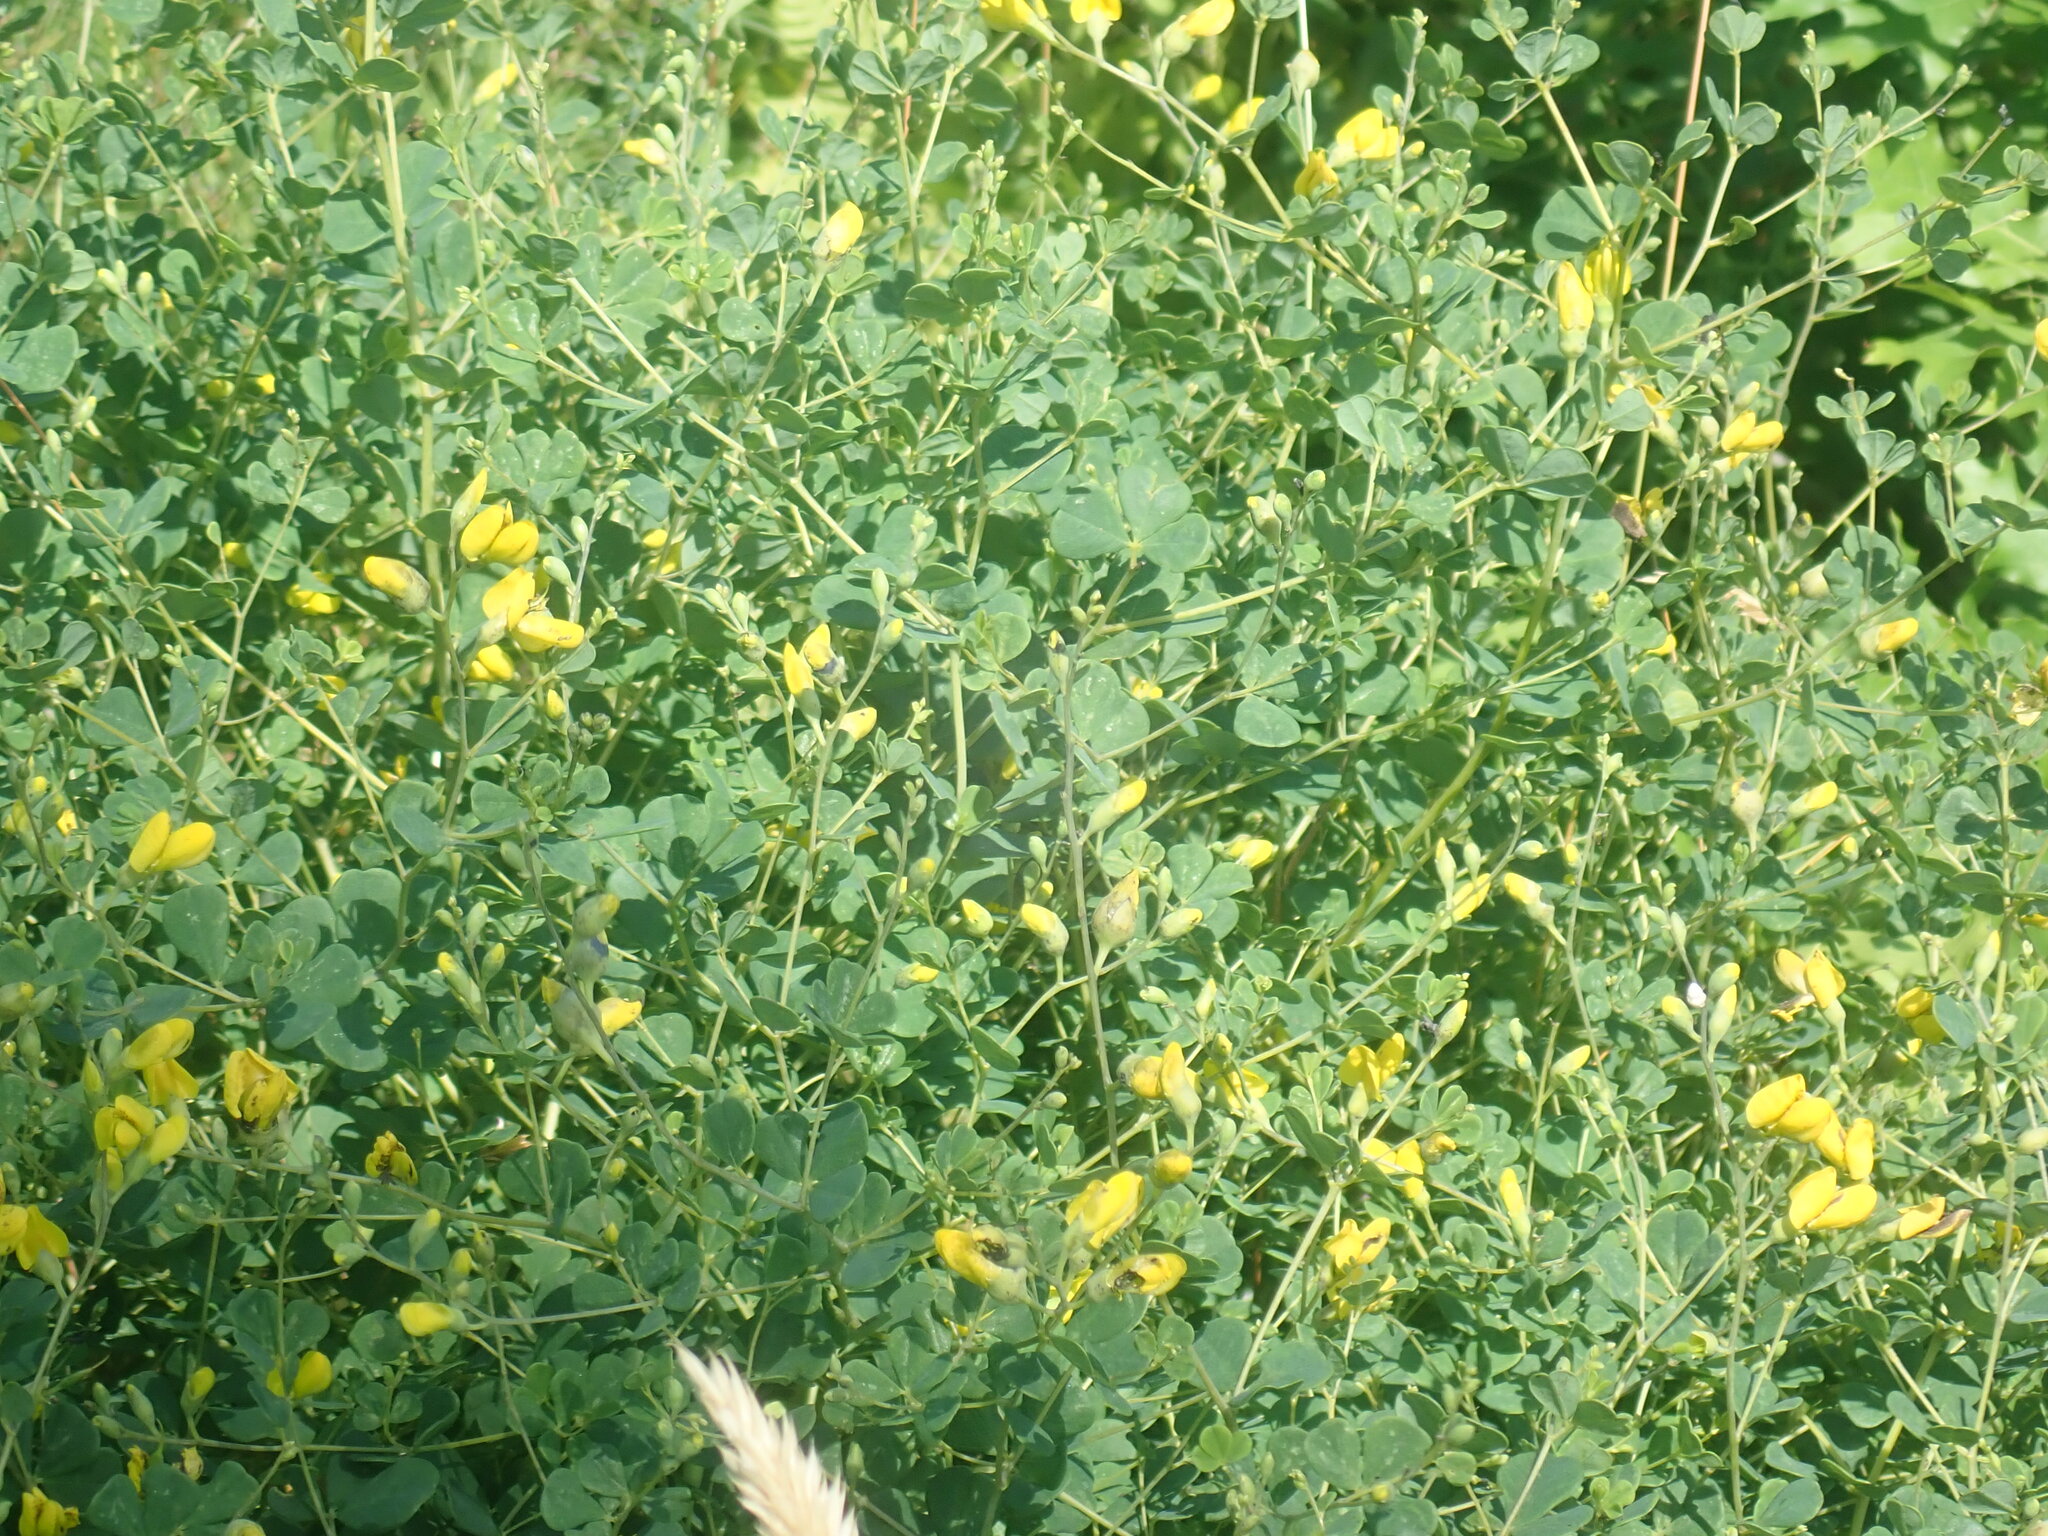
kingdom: Plantae
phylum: Tracheophyta
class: Magnoliopsida
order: Fabales
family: Fabaceae
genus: Baptisia
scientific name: Baptisia tinctoria
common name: Wild indigo
